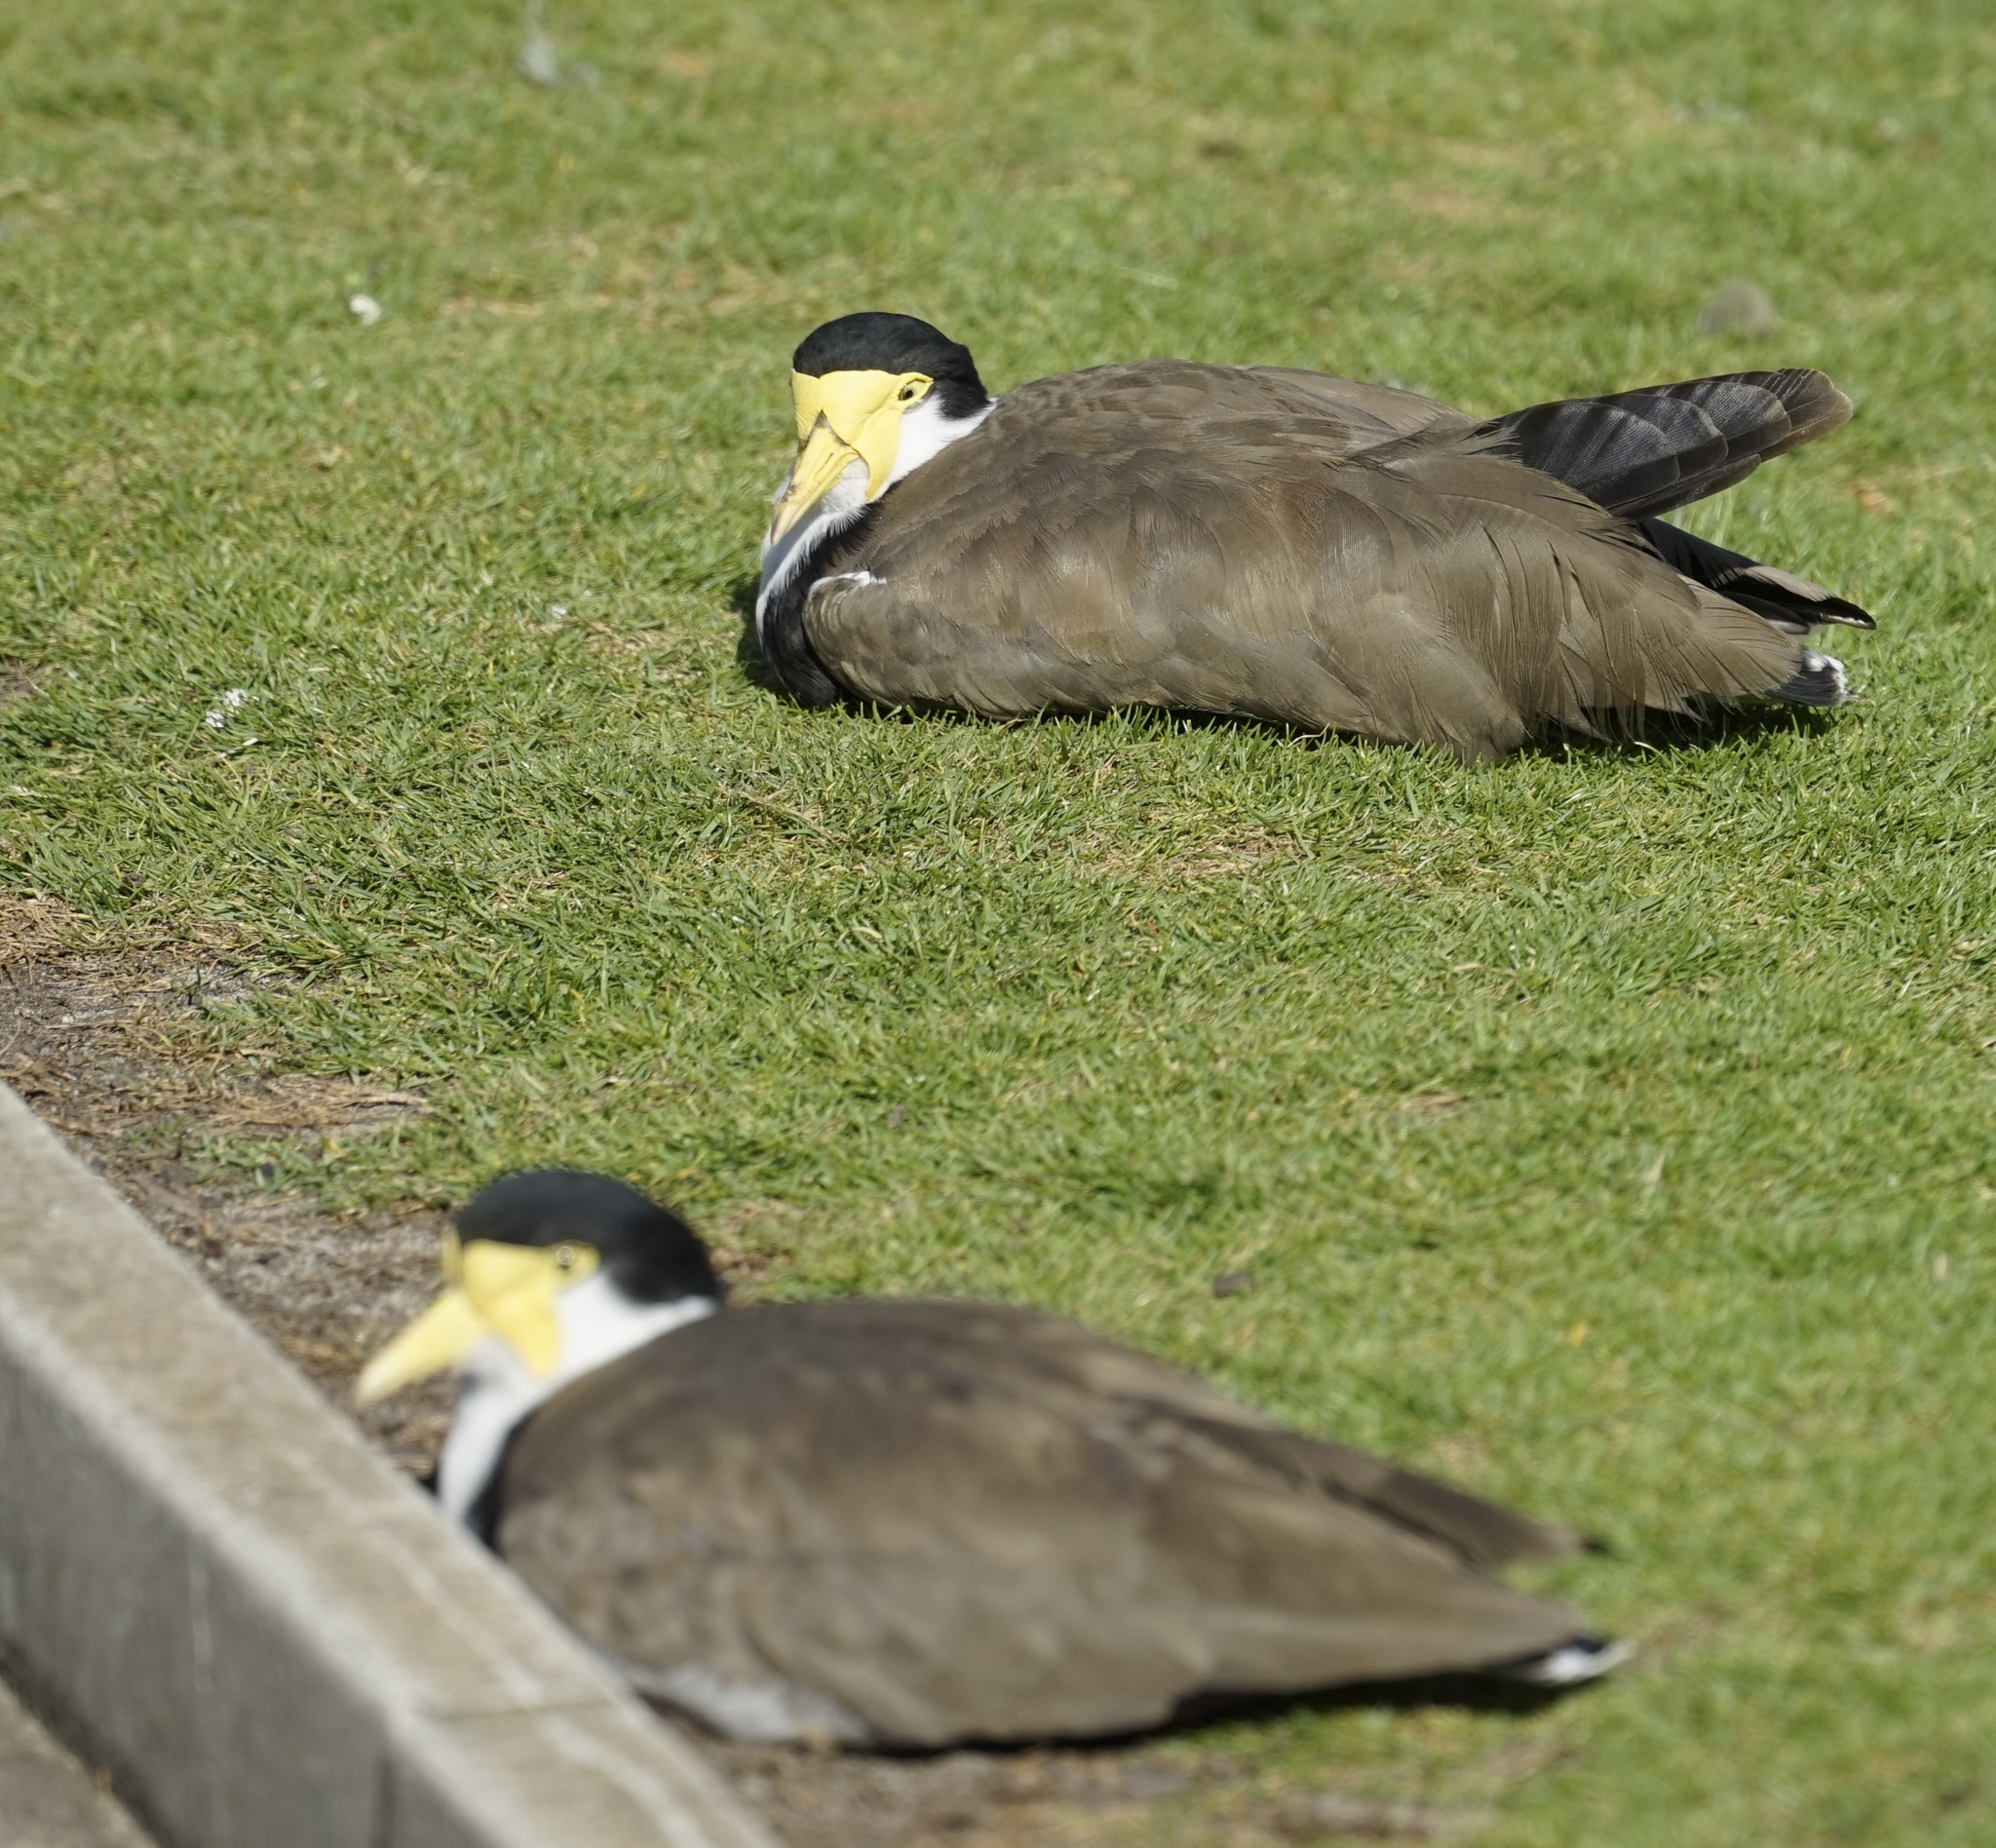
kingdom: Animalia
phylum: Chordata
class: Aves
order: Charadriiformes
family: Charadriidae
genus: Vanellus
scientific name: Vanellus miles
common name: Masked lapwing
